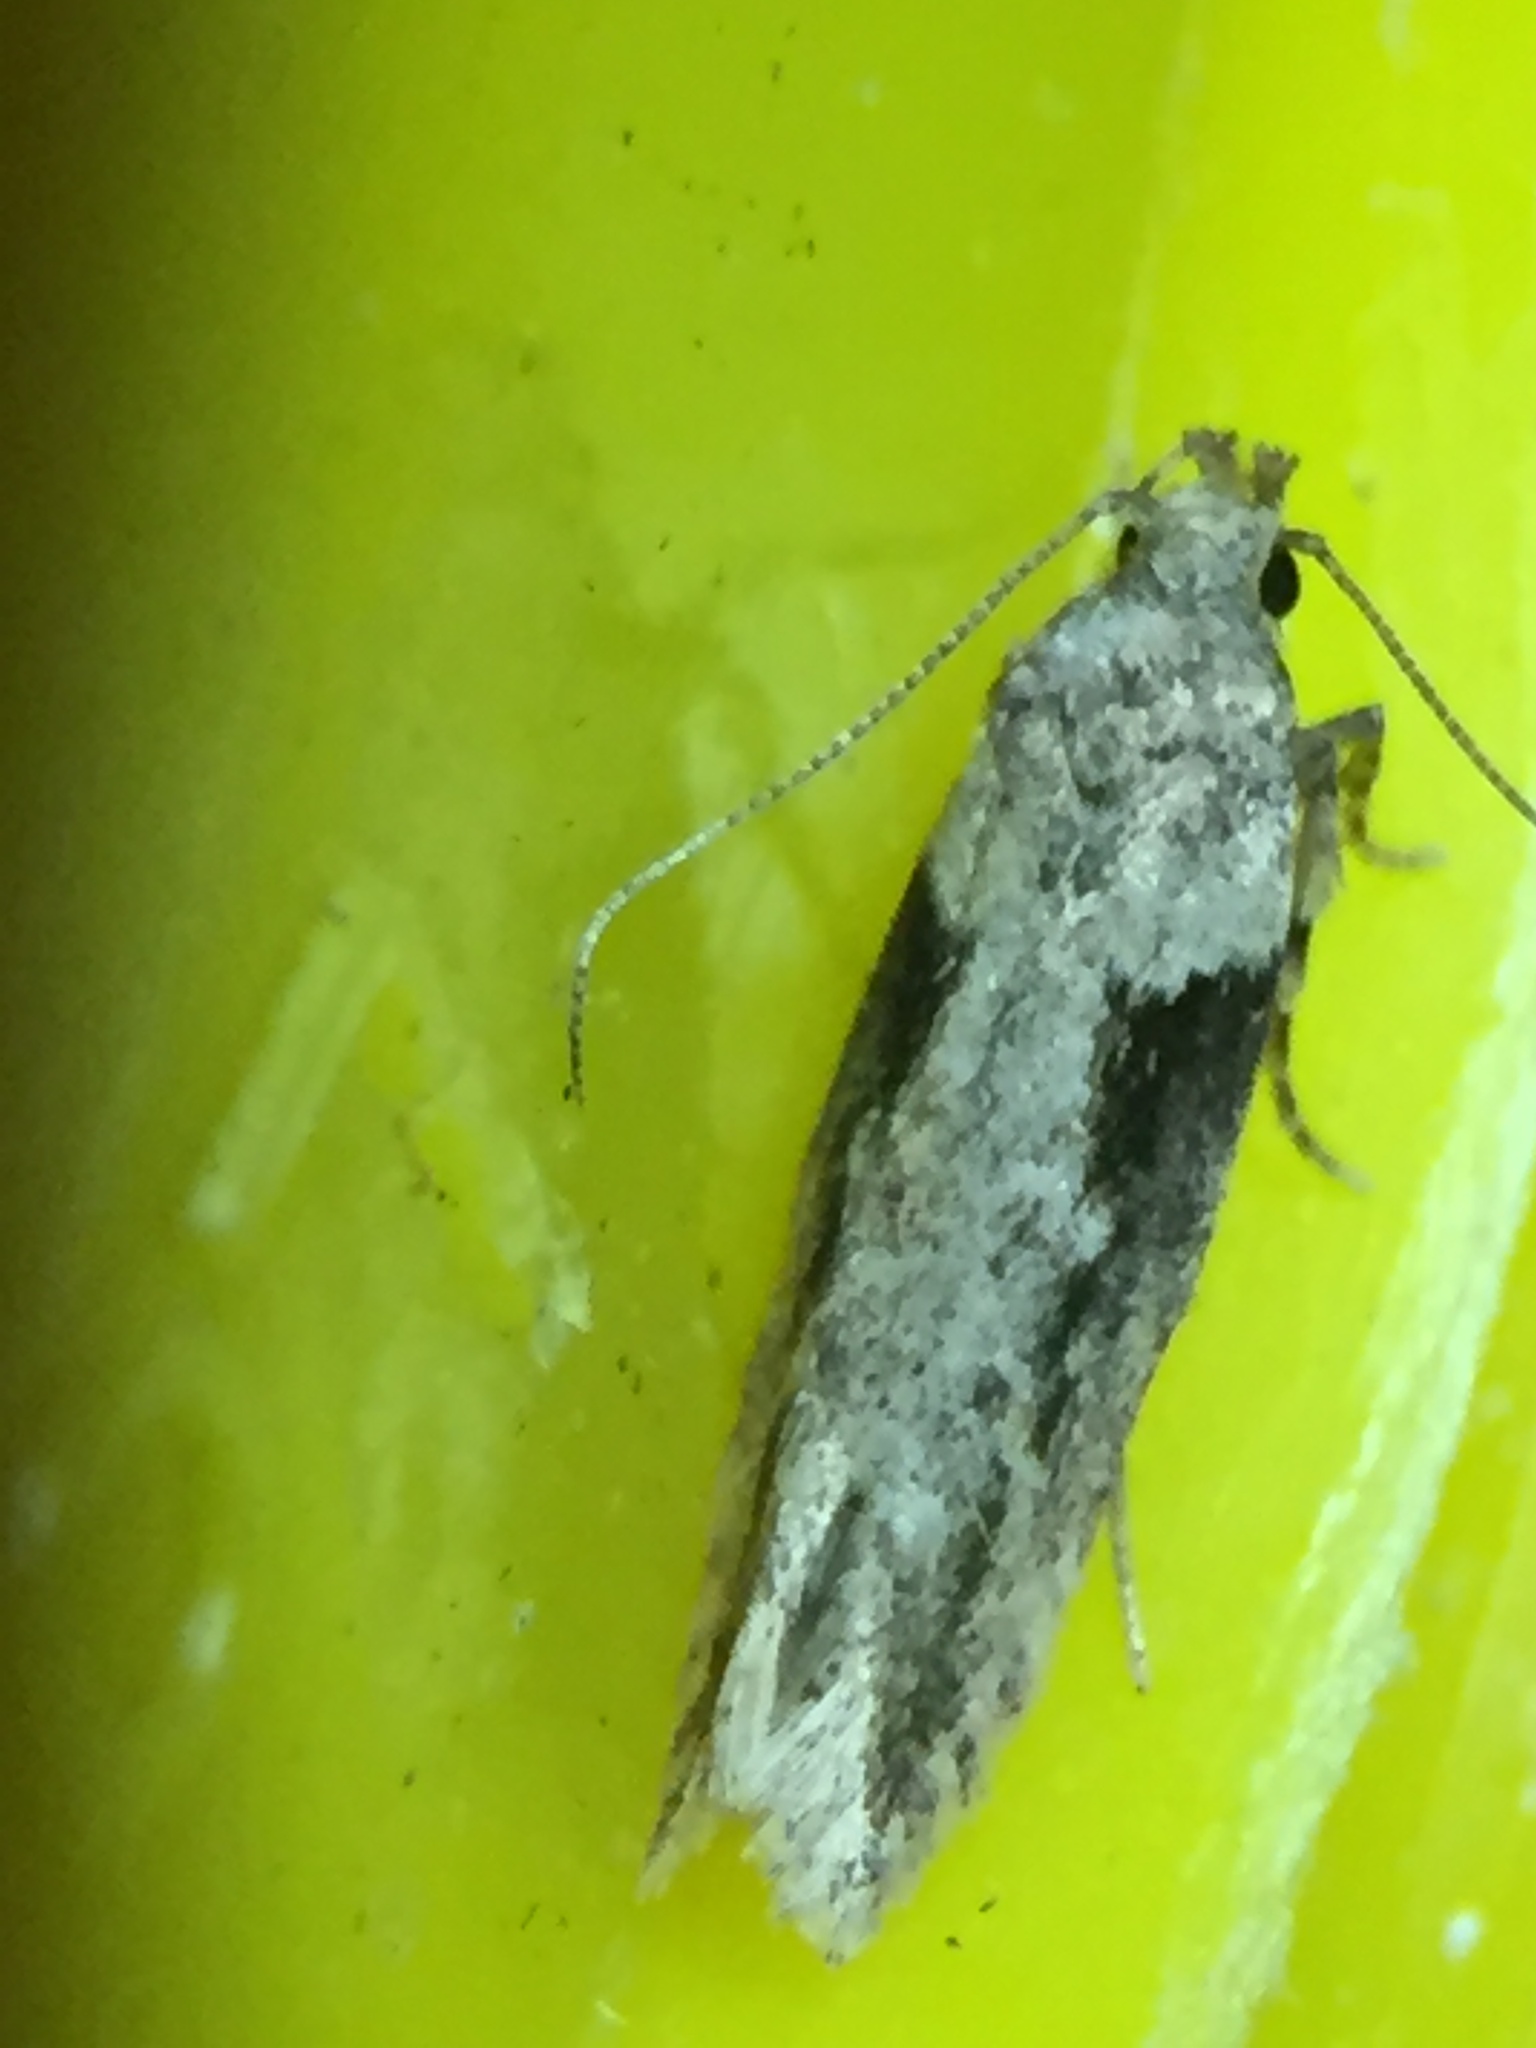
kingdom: Animalia
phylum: Arthropoda
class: Insecta
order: Lepidoptera
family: Gelechiidae
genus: Symmetrischema
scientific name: Symmetrischema tangolias
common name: Moth
